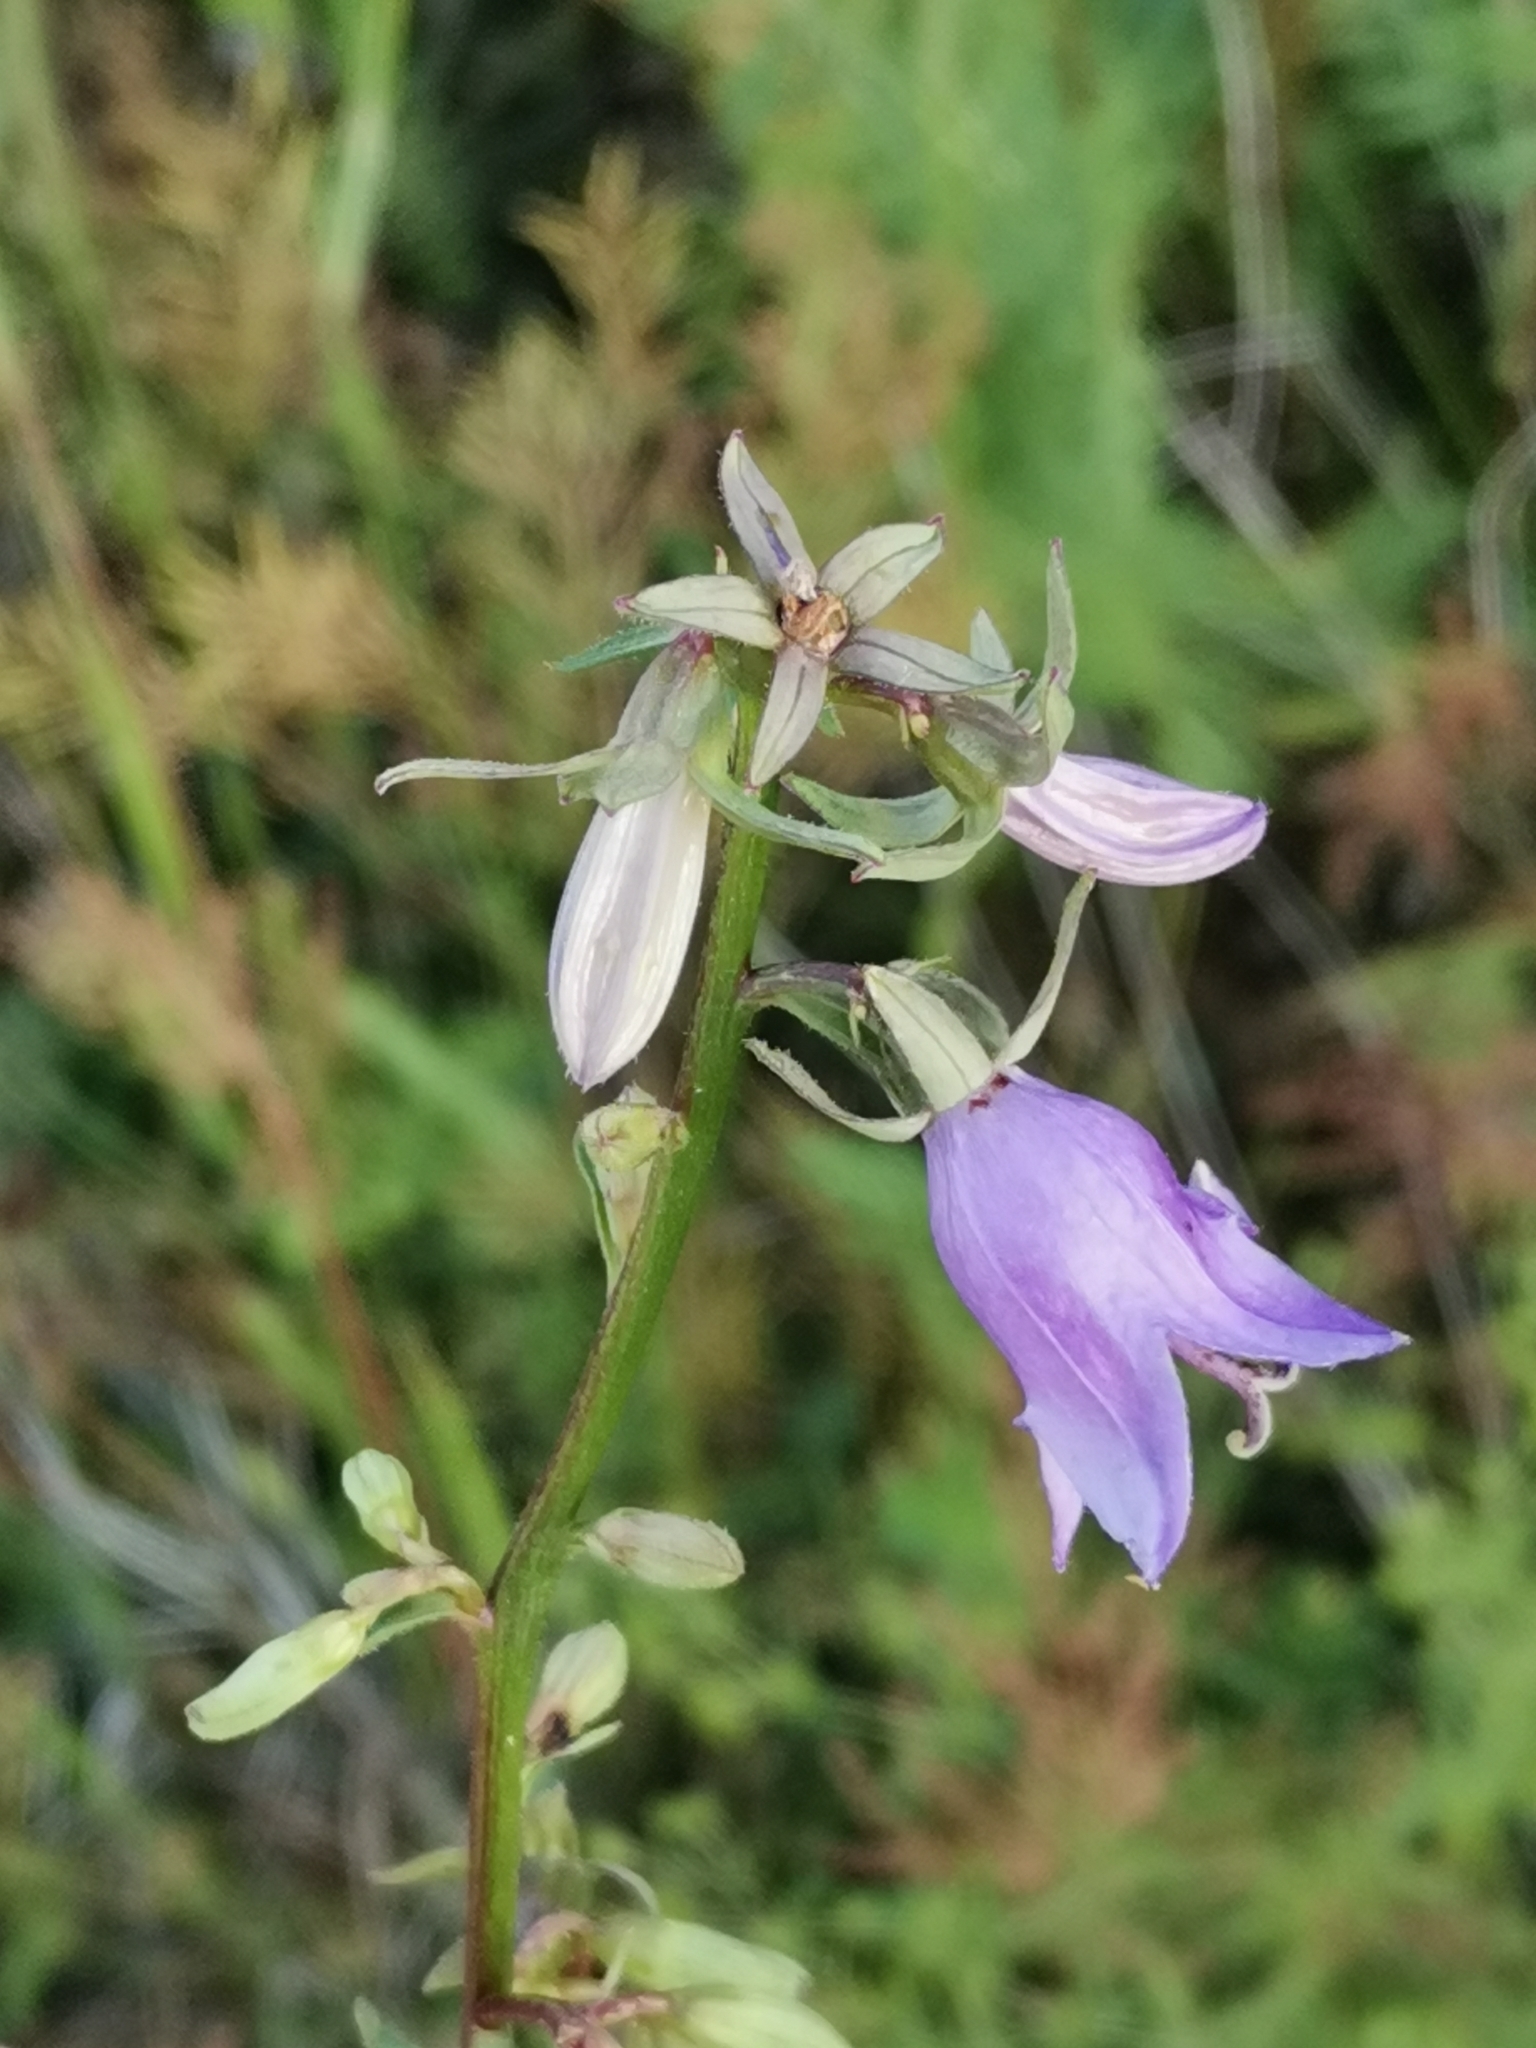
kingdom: Plantae
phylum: Tracheophyta
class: Magnoliopsida
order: Asterales
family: Campanulaceae
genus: Campanula
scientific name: Campanula rapunculoides
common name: Creeping bellflower
